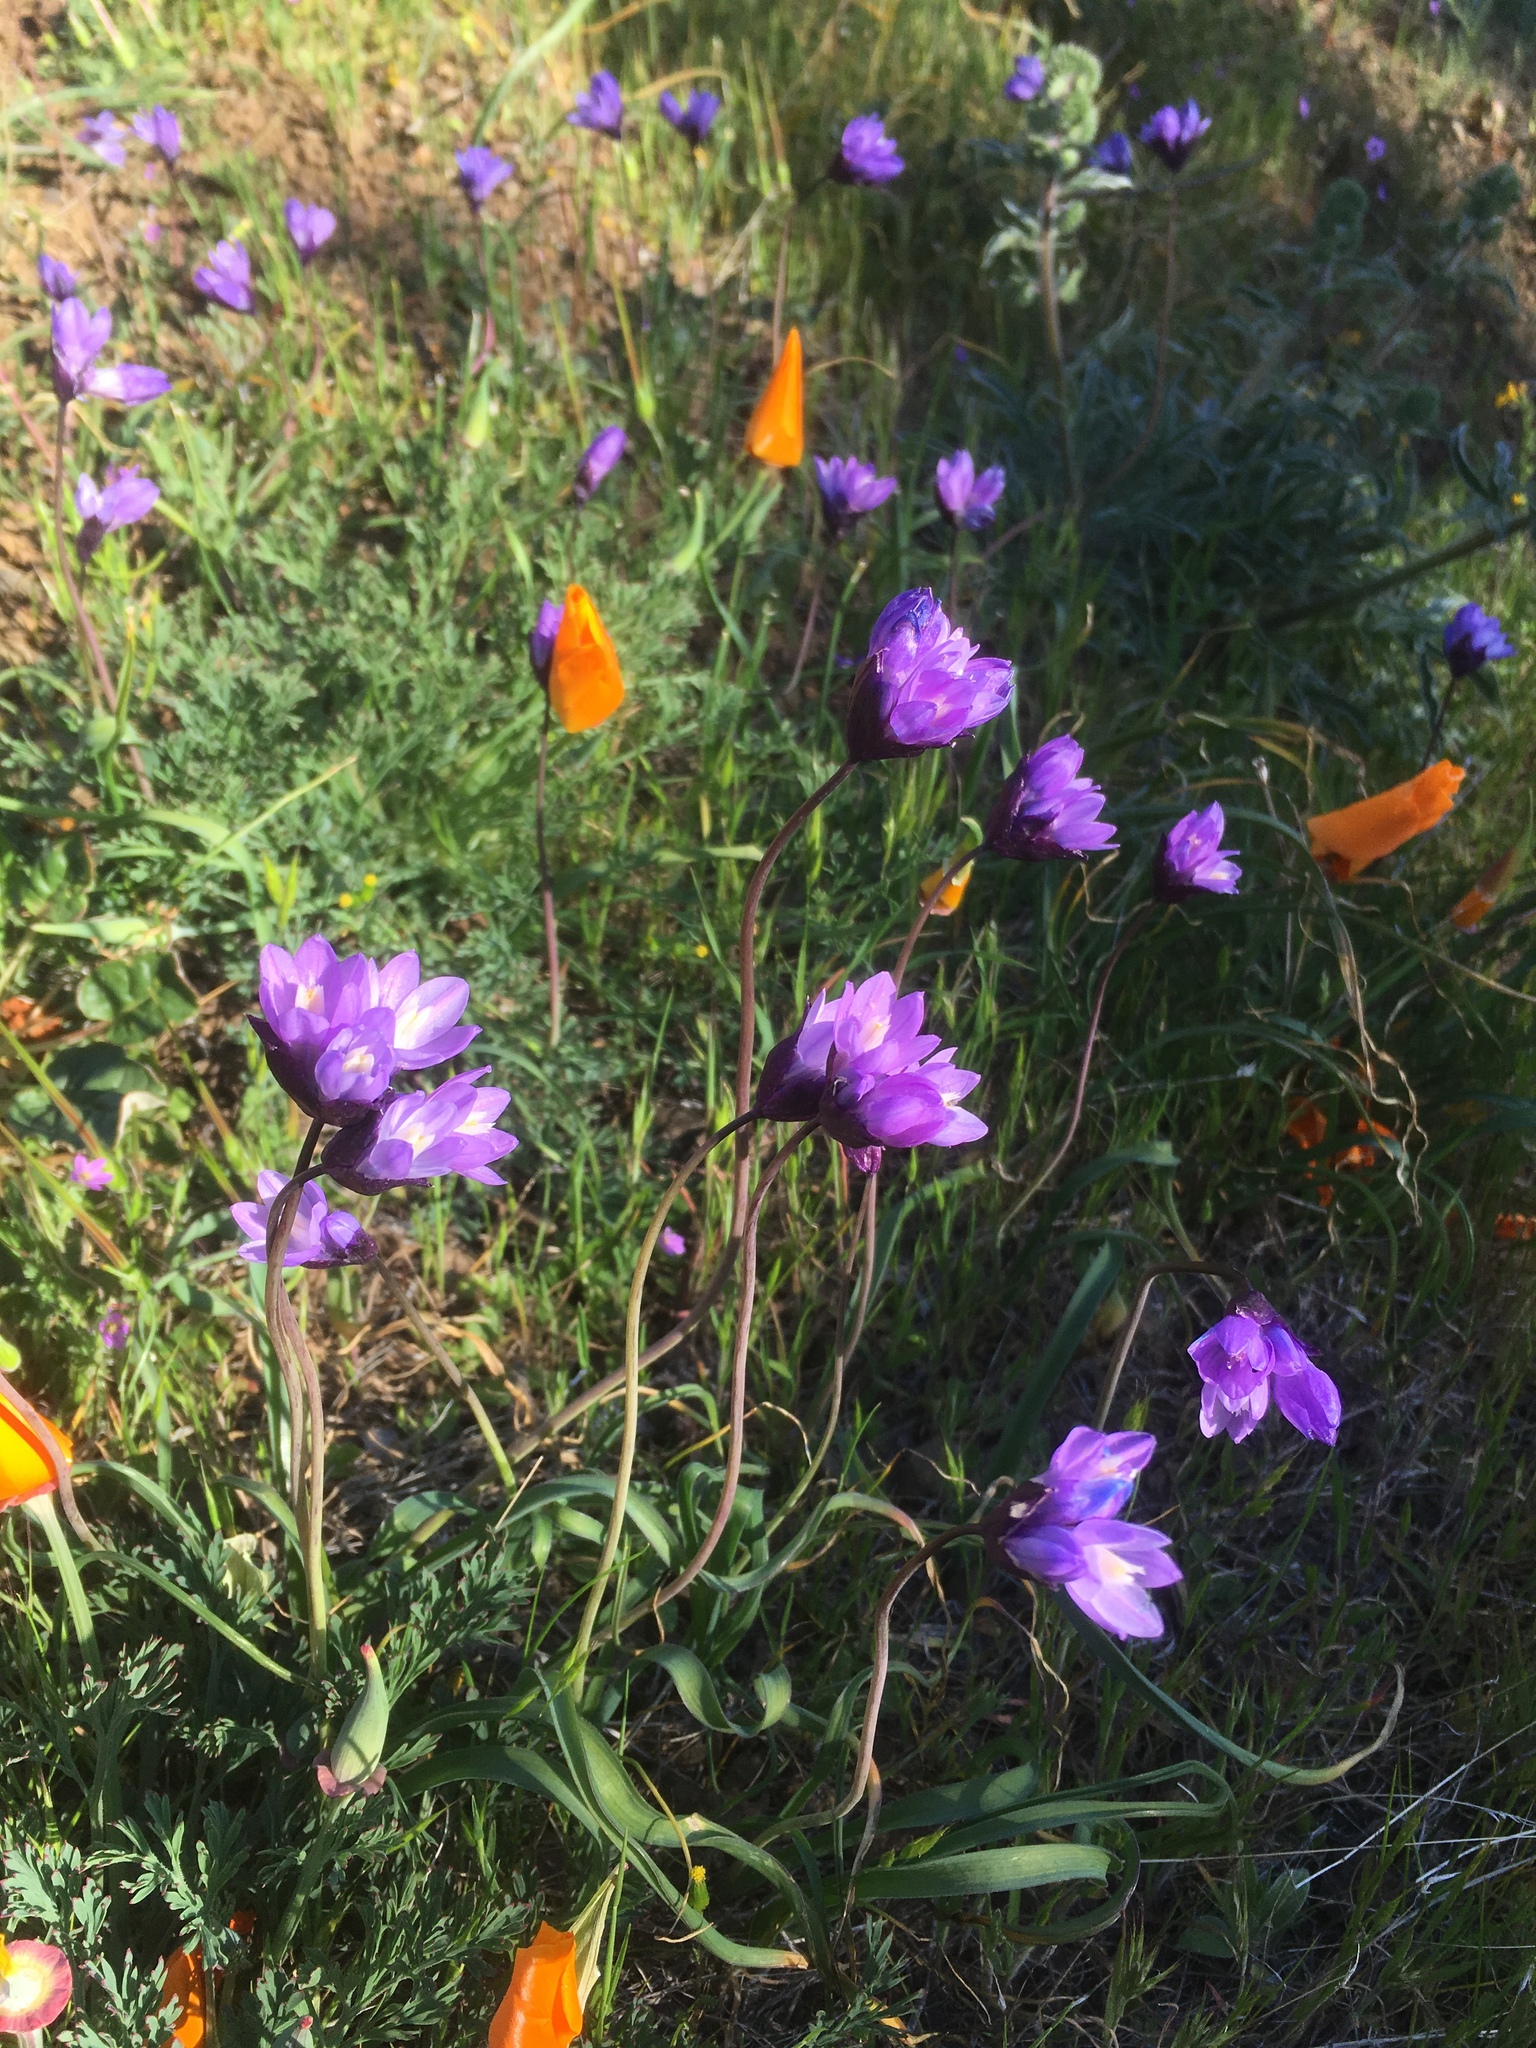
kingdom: Plantae
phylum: Tracheophyta
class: Liliopsida
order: Asparagales
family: Asparagaceae
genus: Dipterostemon
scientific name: Dipterostemon capitatus
